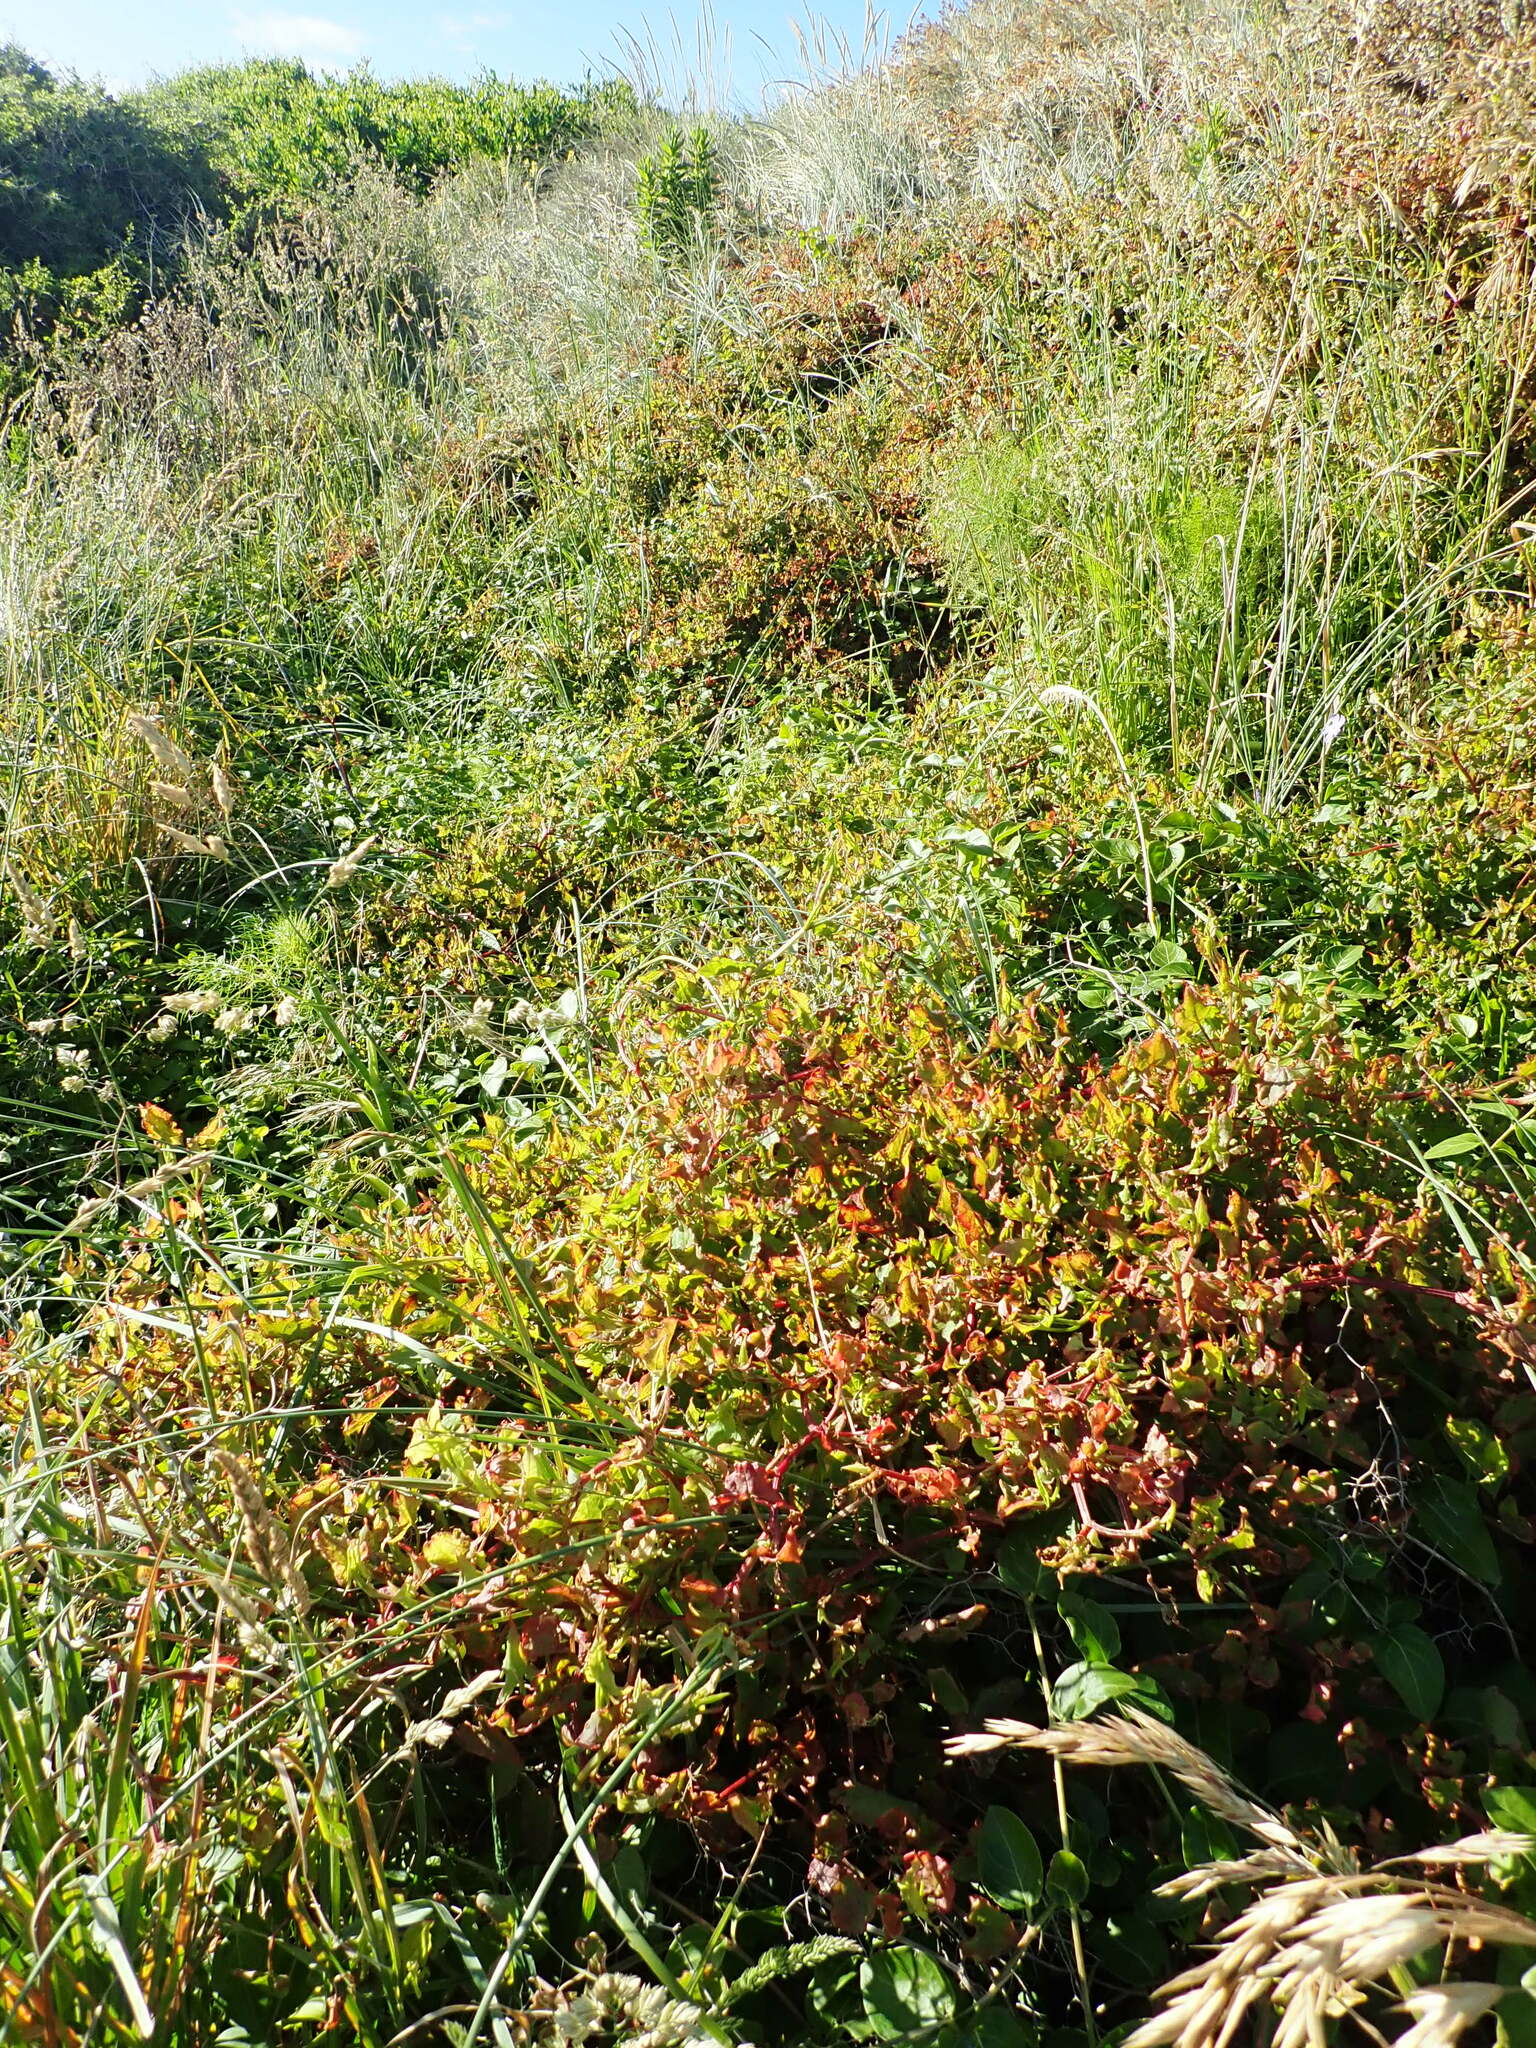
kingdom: Plantae
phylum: Tracheophyta
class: Magnoliopsida
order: Caryophyllales
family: Polygonaceae
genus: Rumex
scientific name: Rumex sagittatus
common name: Climbing dock
